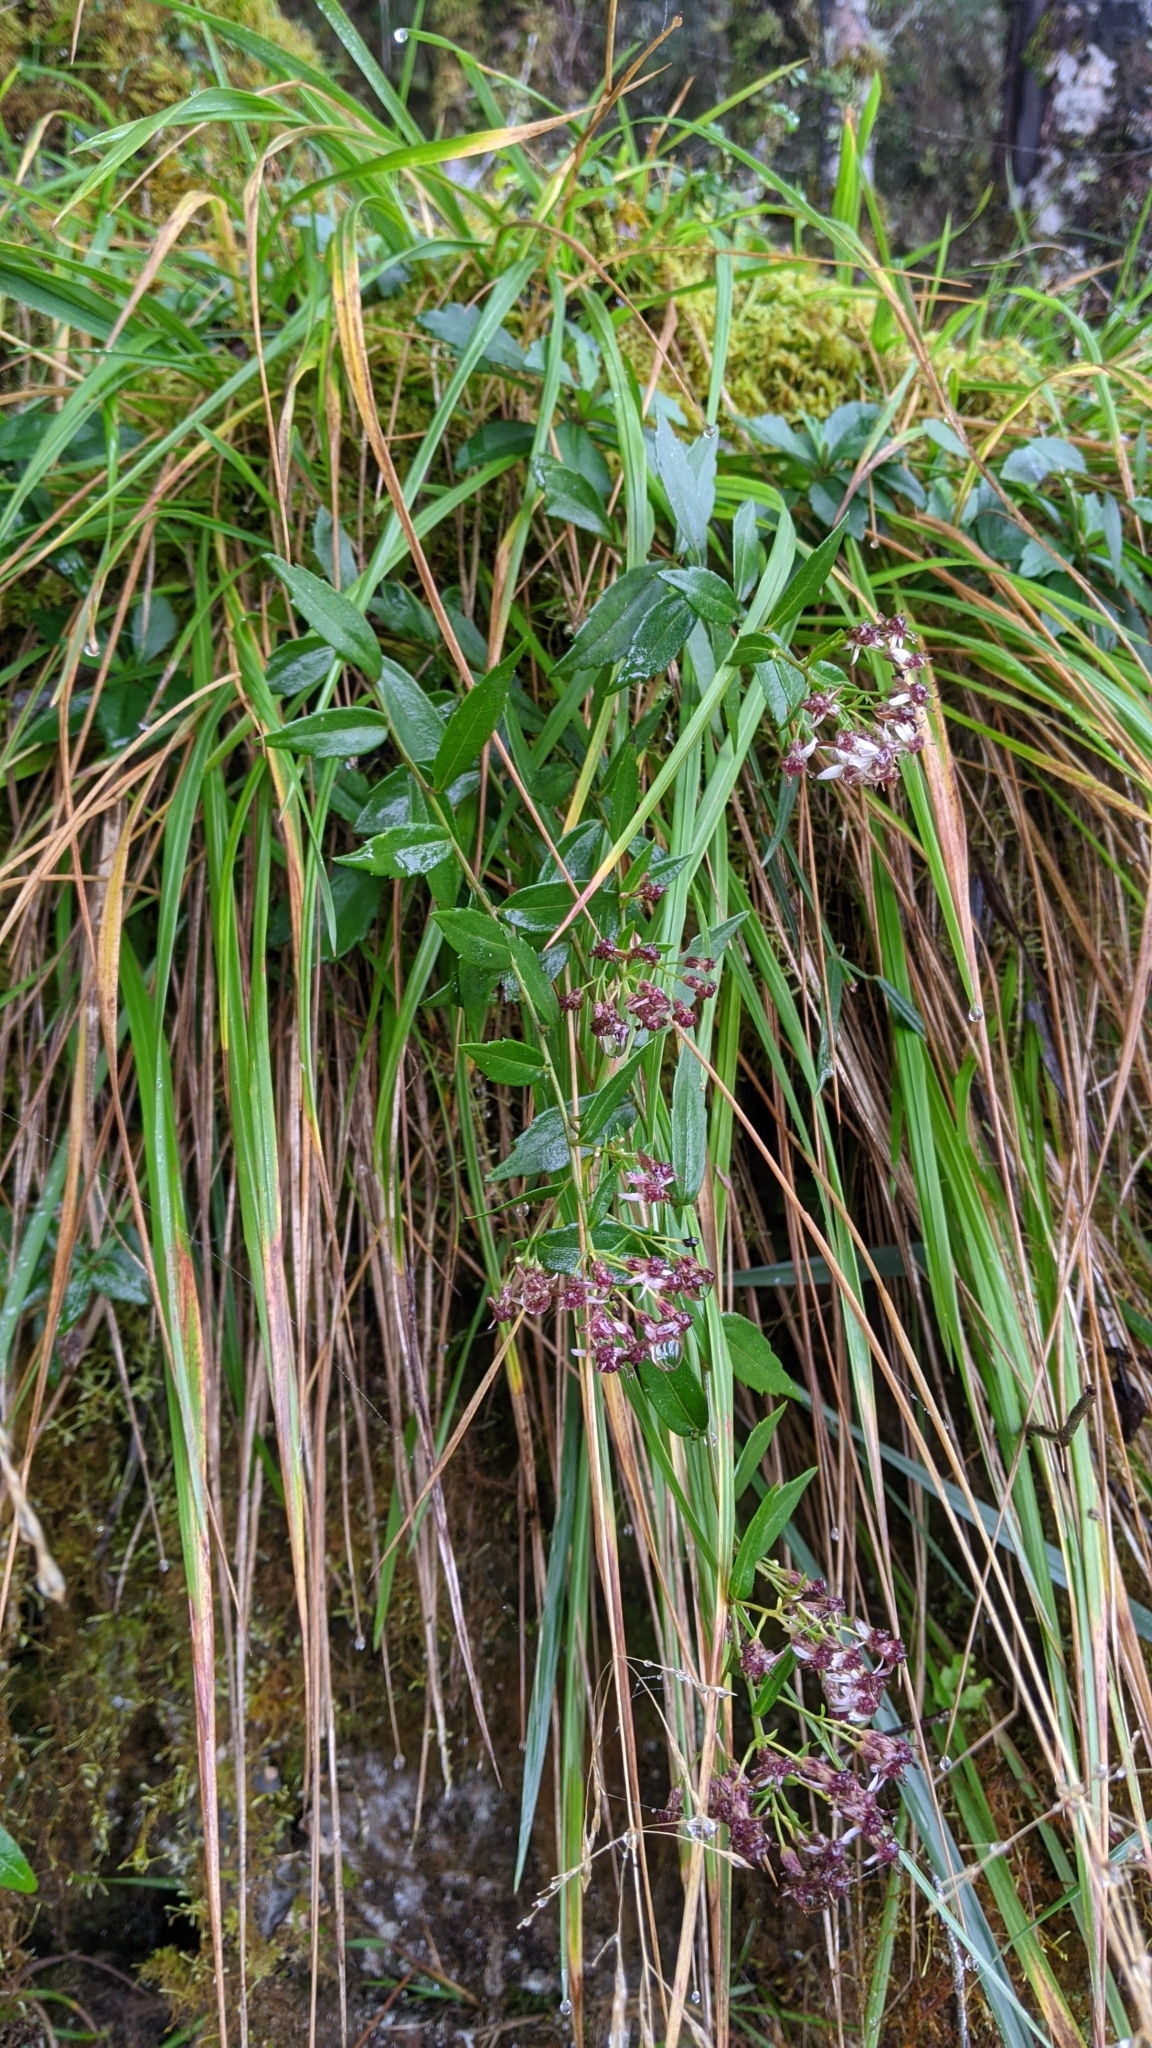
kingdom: Plantae
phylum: Tracheophyta
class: Magnoliopsida
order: Asterales
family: Asteraceae
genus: Aster
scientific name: Aster taiwanensis
